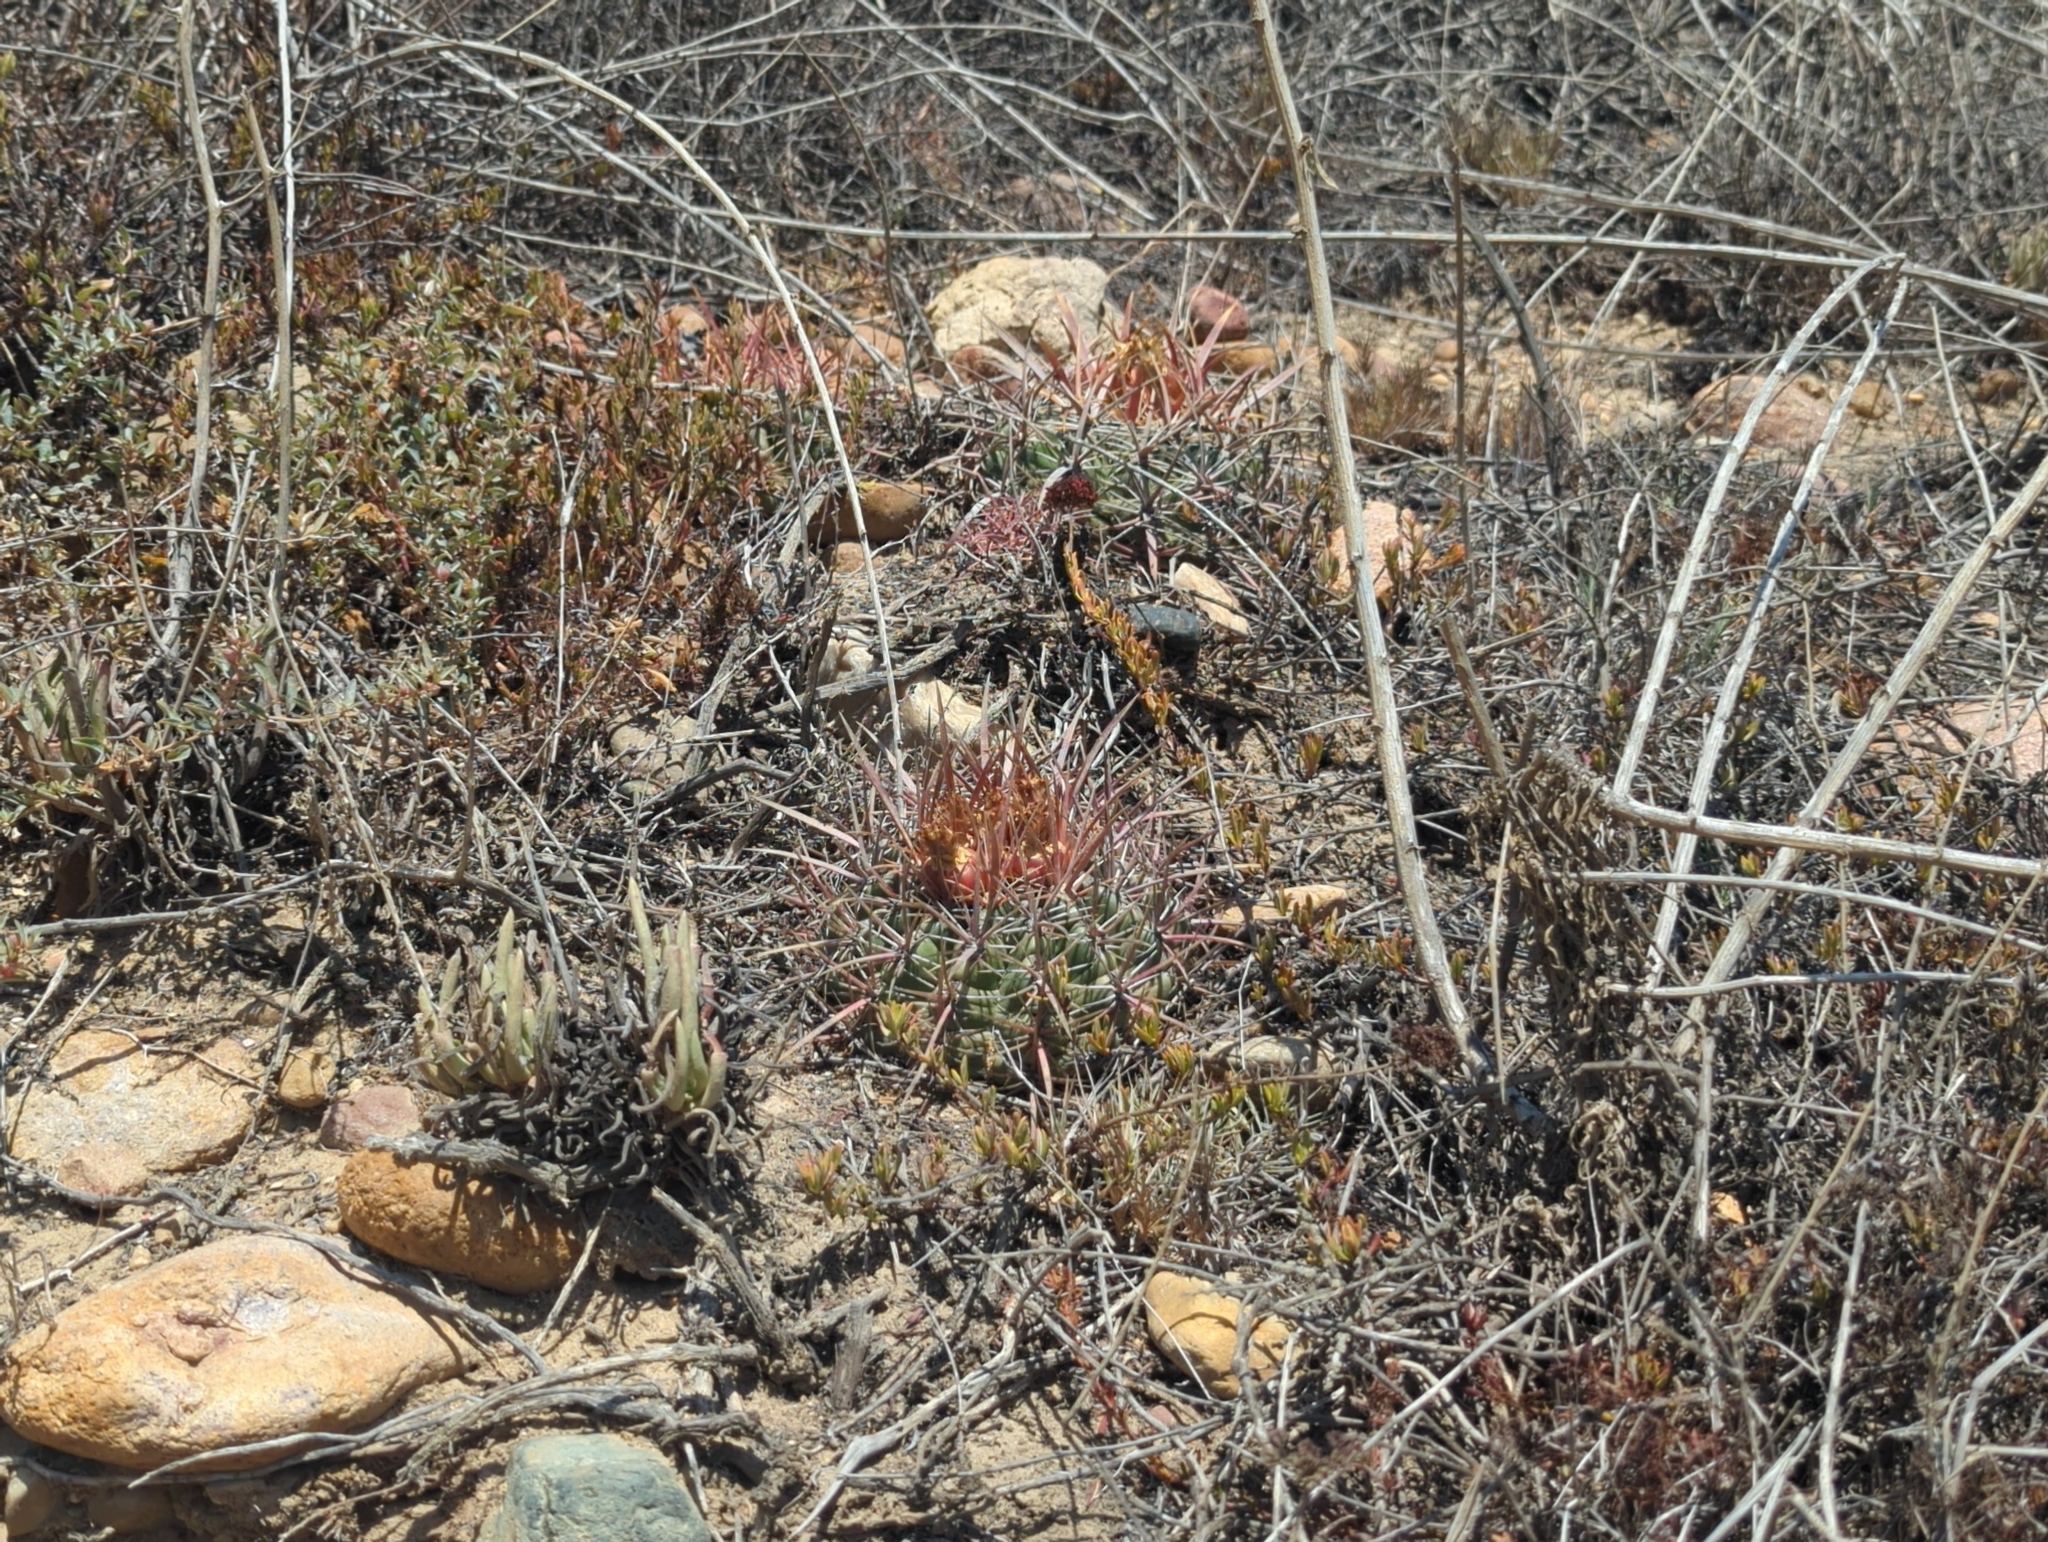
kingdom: Plantae
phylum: Tracheophyta
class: Magnoliopsida
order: Caryophyllales
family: Cactaceae
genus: Ferocactus
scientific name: Ferocactus viridescens
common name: San diego barrel cactus
